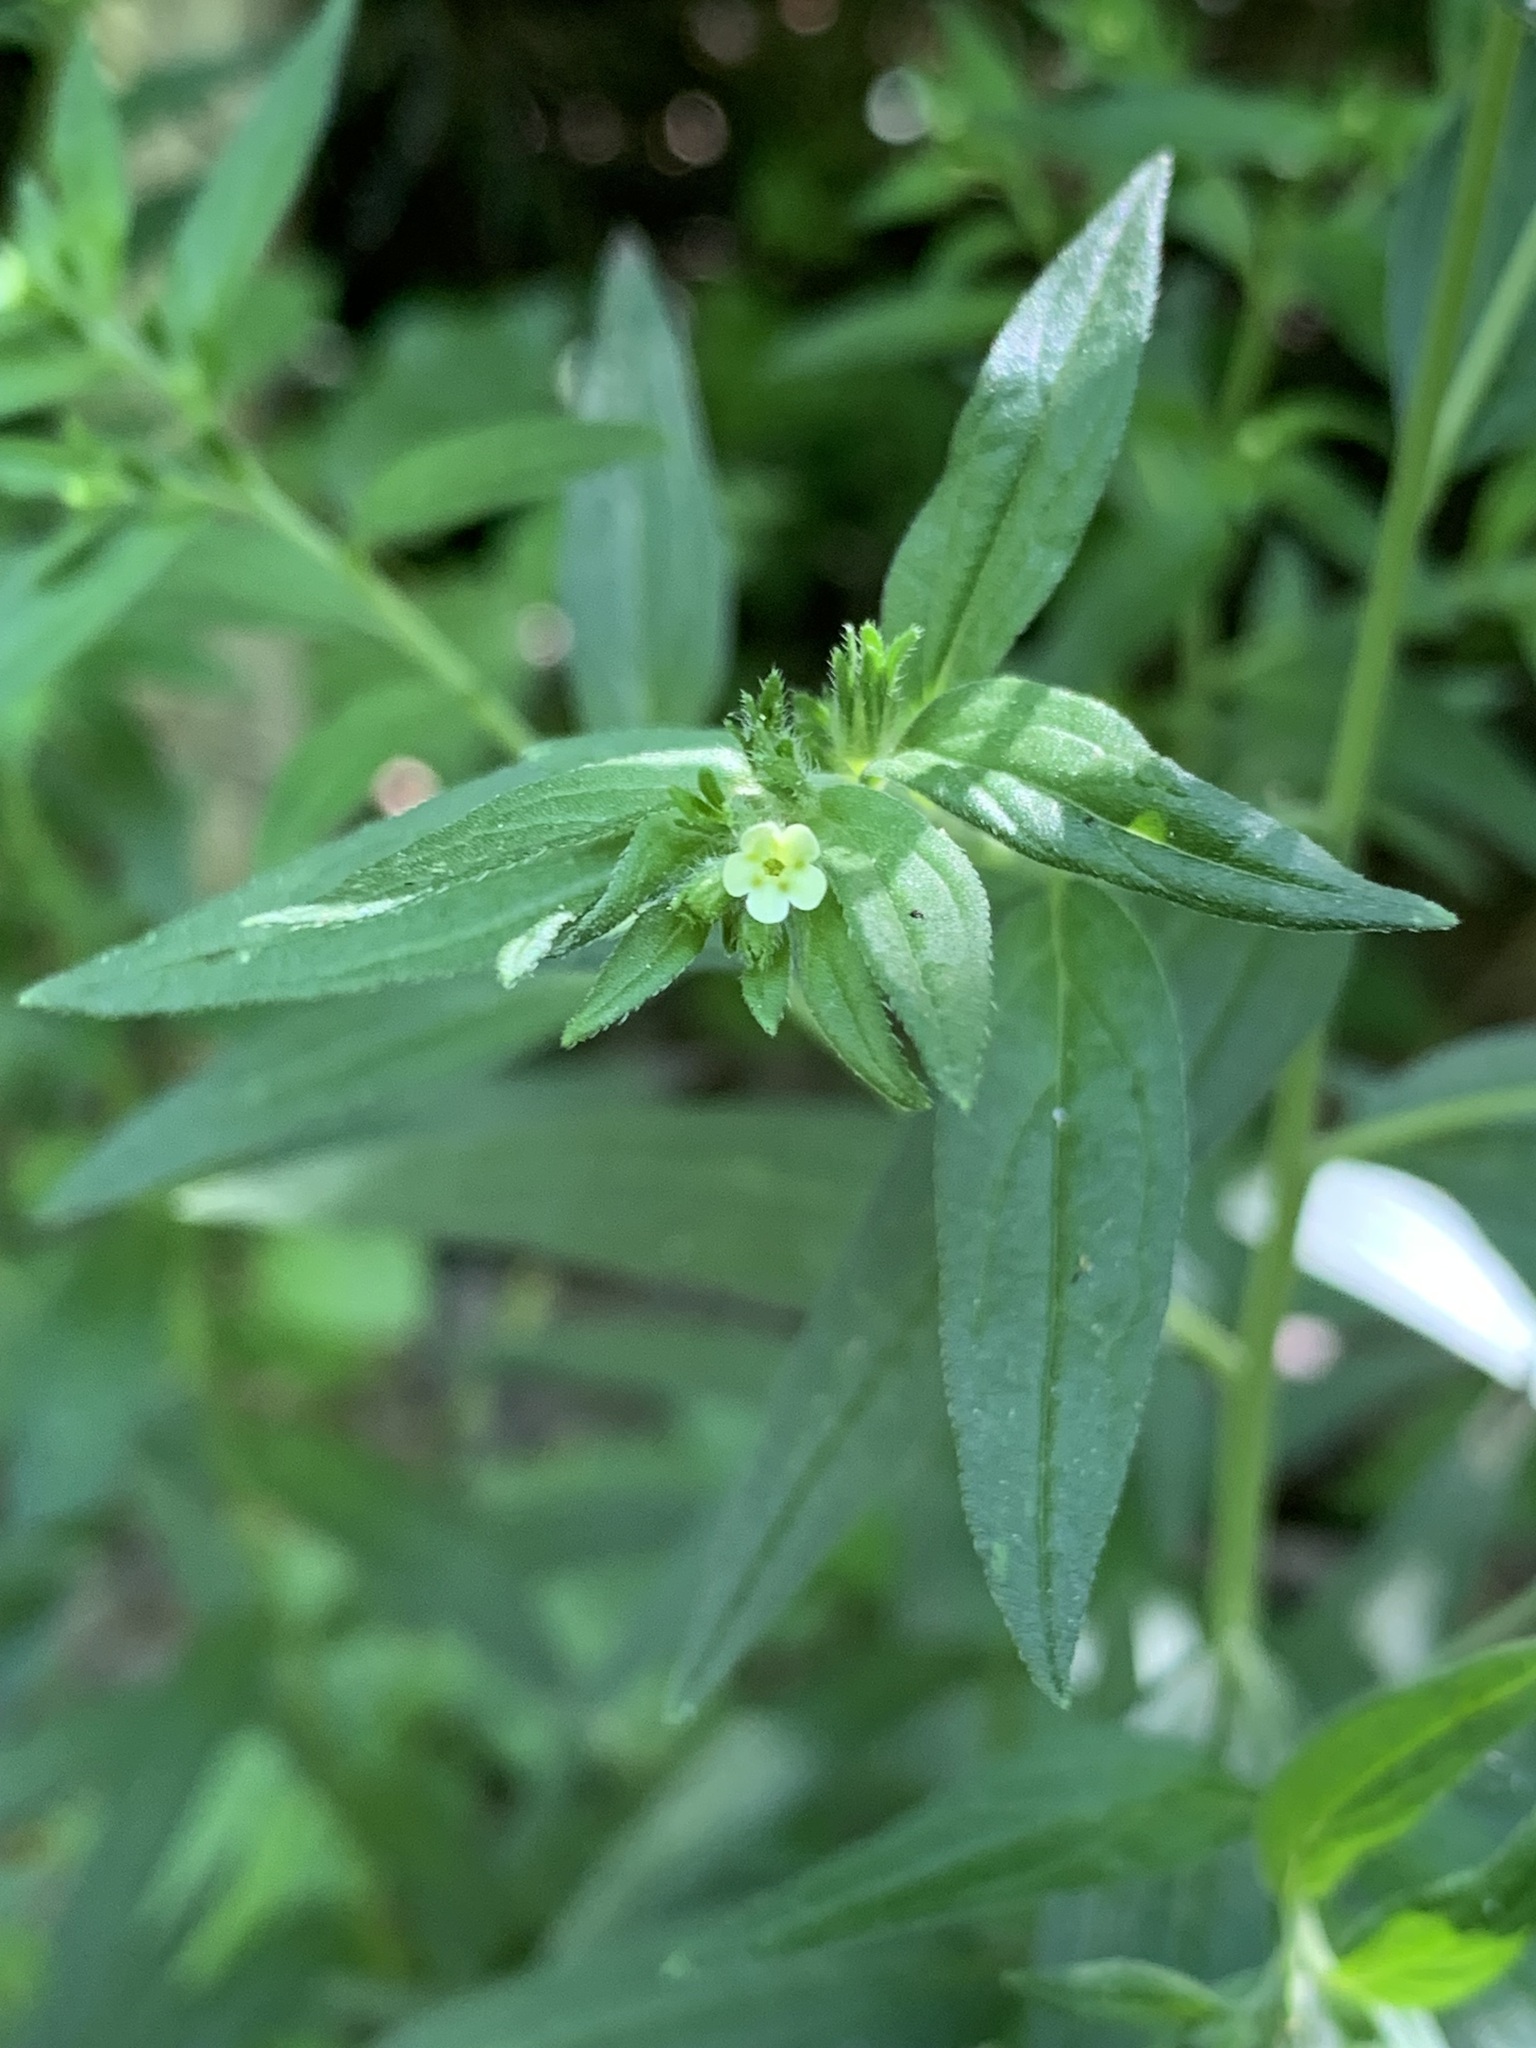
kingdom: Plantae
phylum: Tracheophyta
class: Magnoliopsida
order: Boraginales
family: Boraginaceae
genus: Lithospermum
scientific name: Lithospermum officinale
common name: Common gromwell
